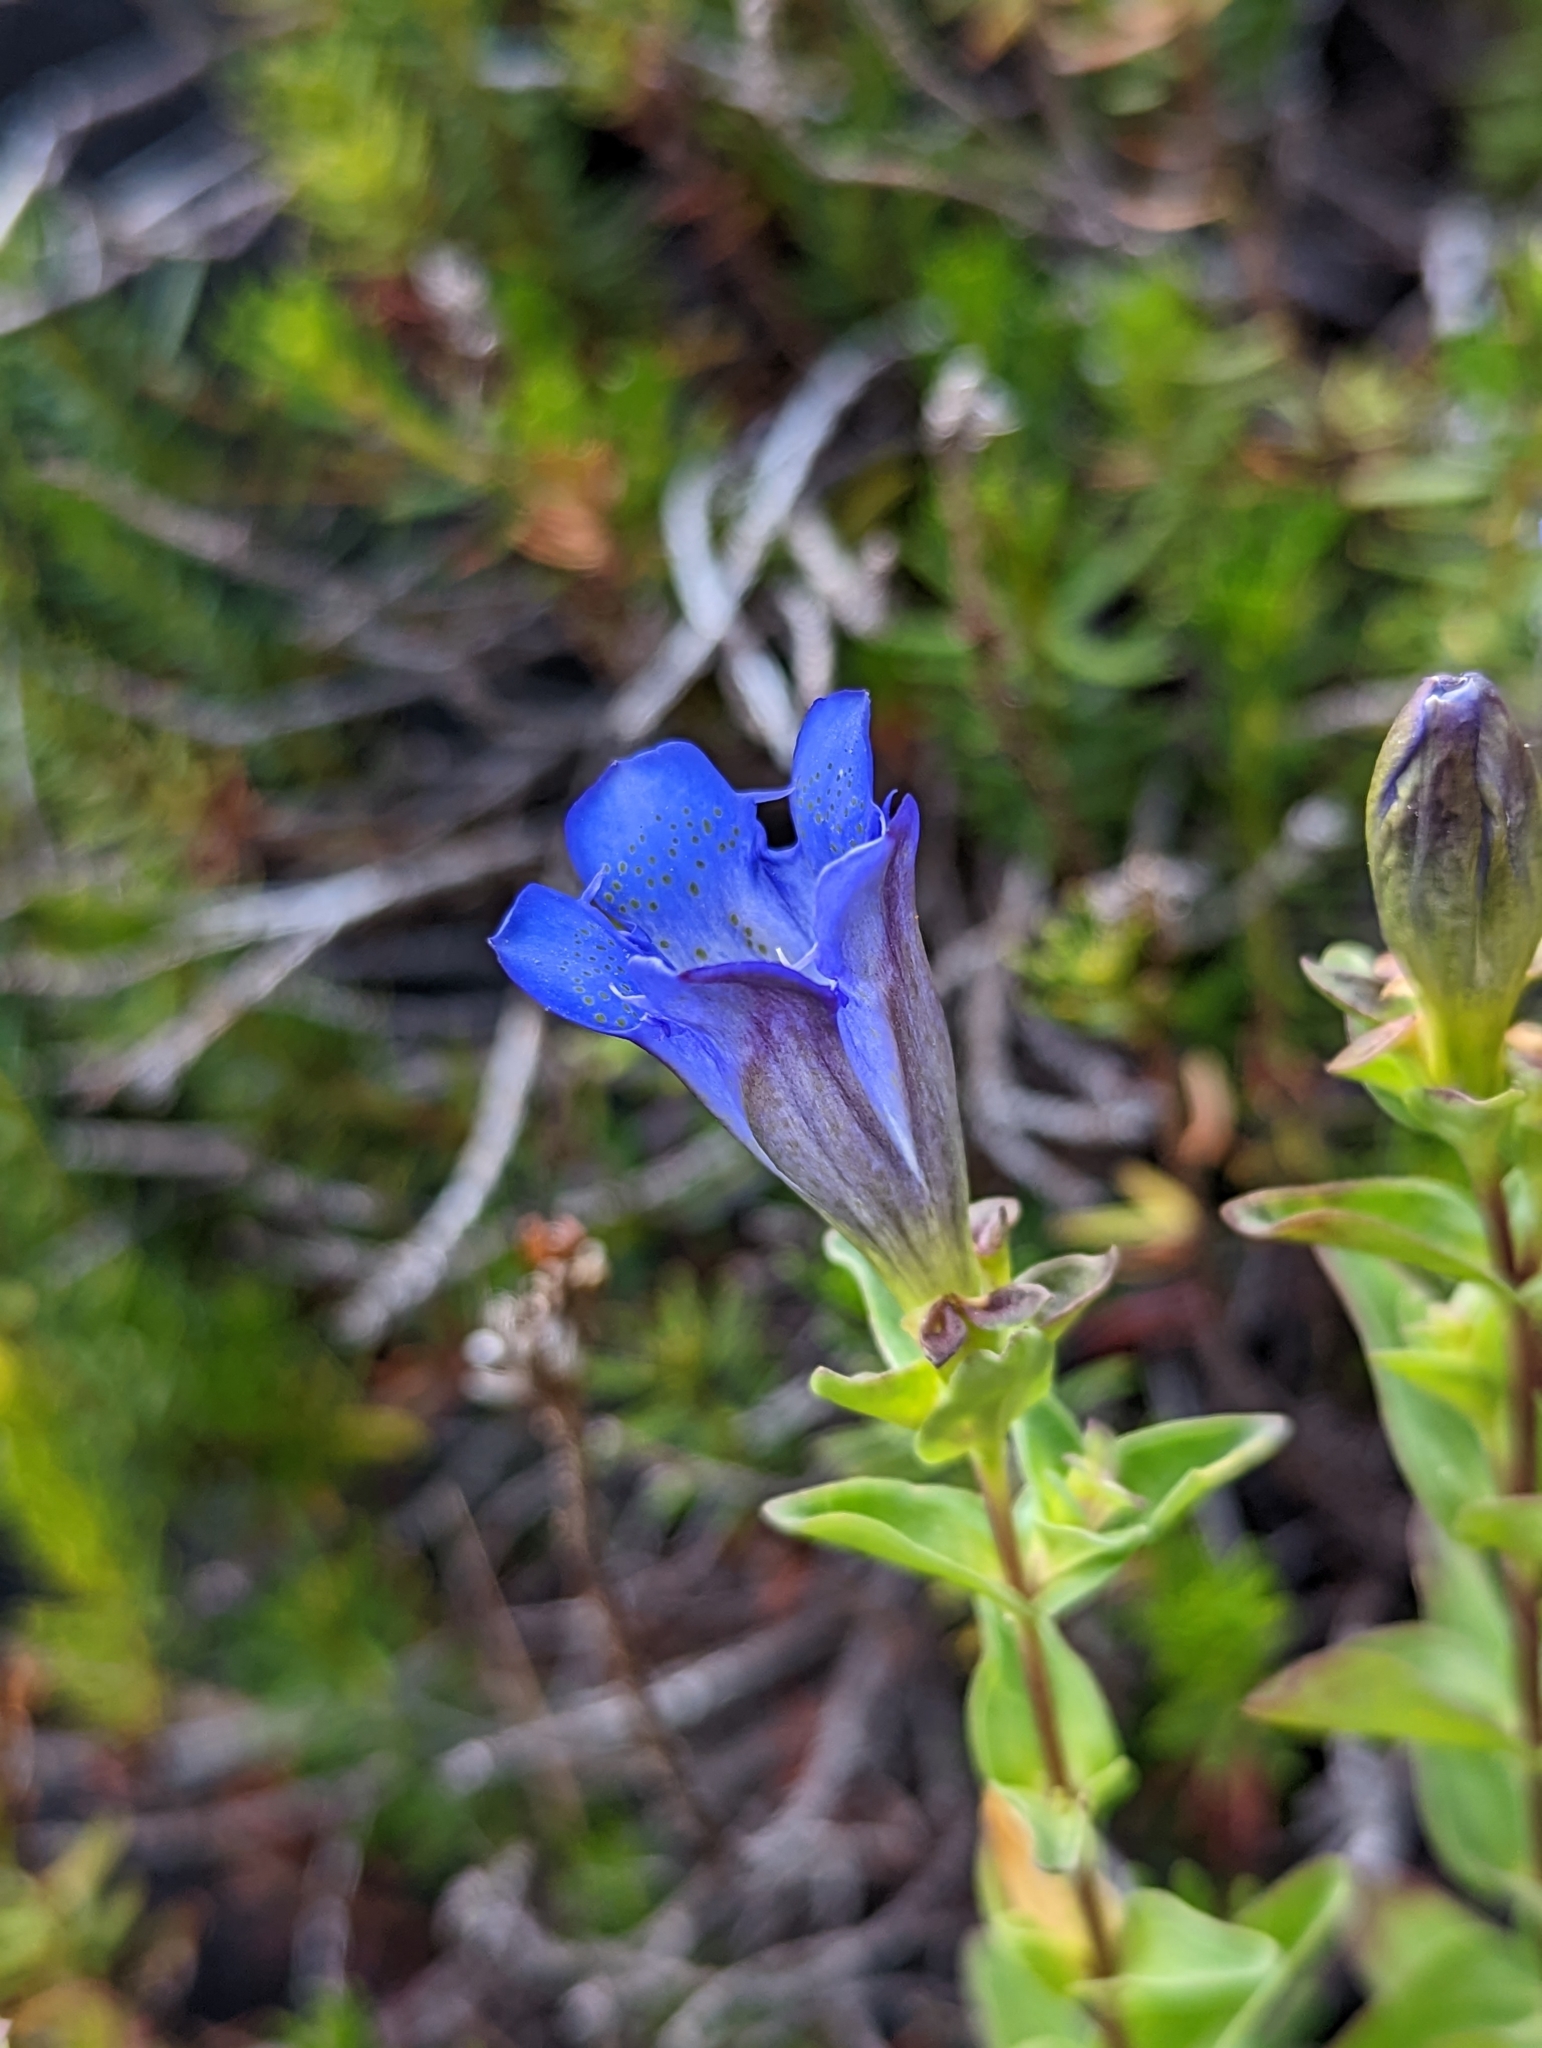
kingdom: Plantae
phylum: Tracheophyta
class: Magnoliopsida
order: Gentianales
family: Gentianaceae
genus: Gentiana
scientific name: Gentiana calycosa
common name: Rainier pleated gentian
